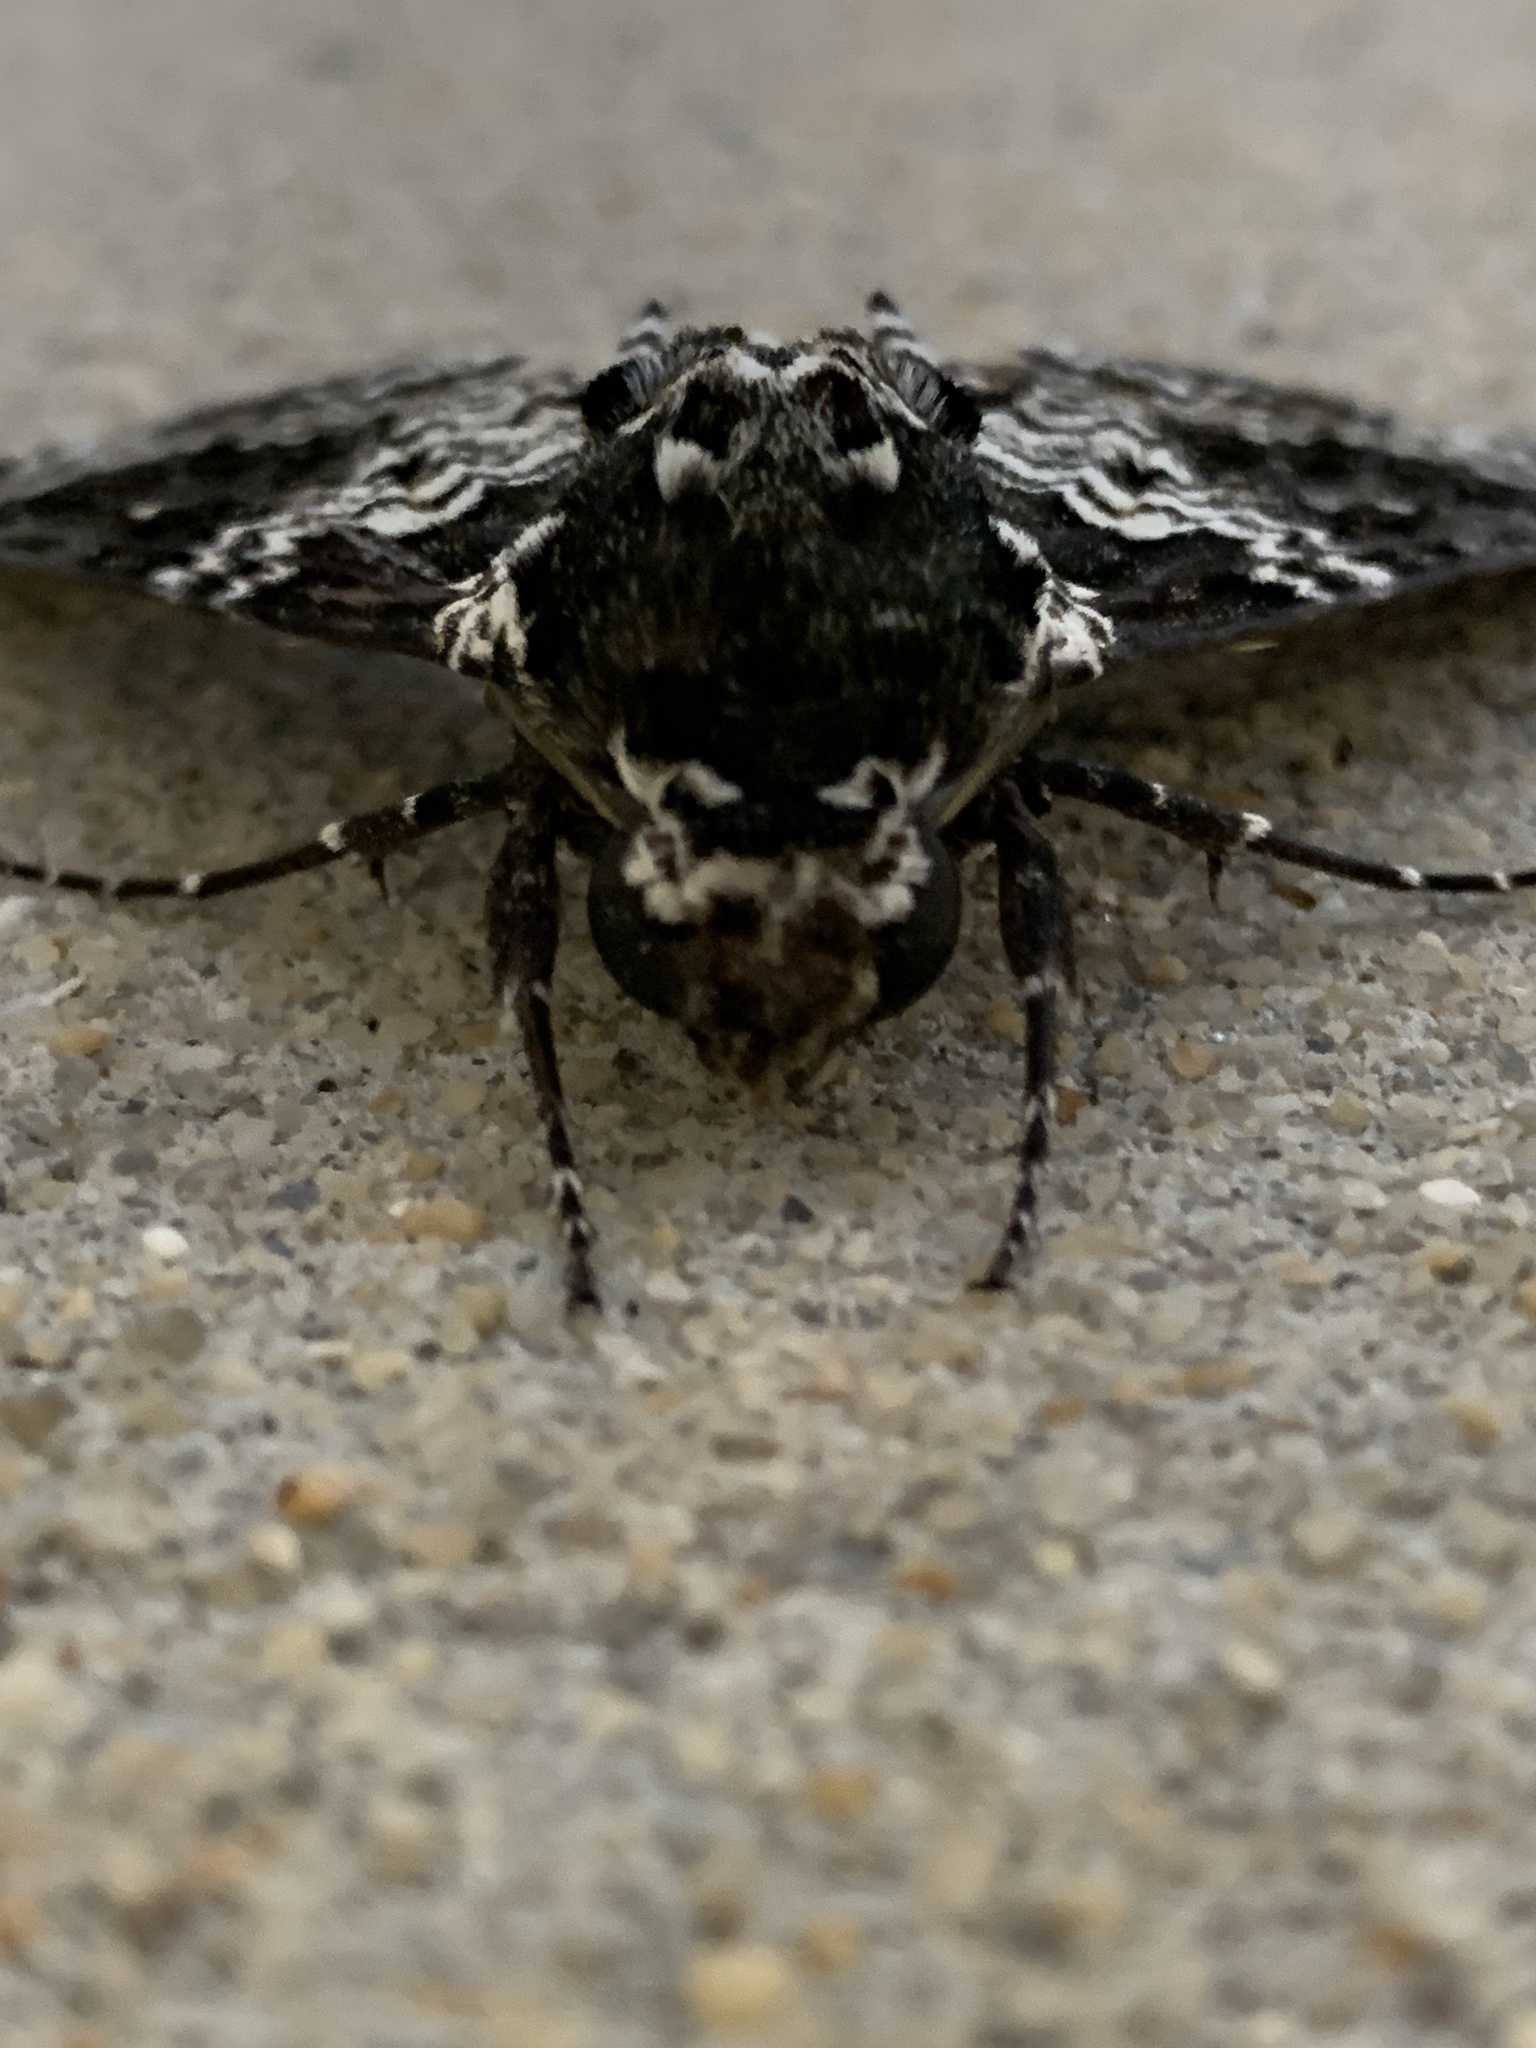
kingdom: Animalia
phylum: Arthropoda
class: Insecta
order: Lepidoptera
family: Sphingidae
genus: Manduca
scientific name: Manduca rustica
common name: Rustic sphinx
